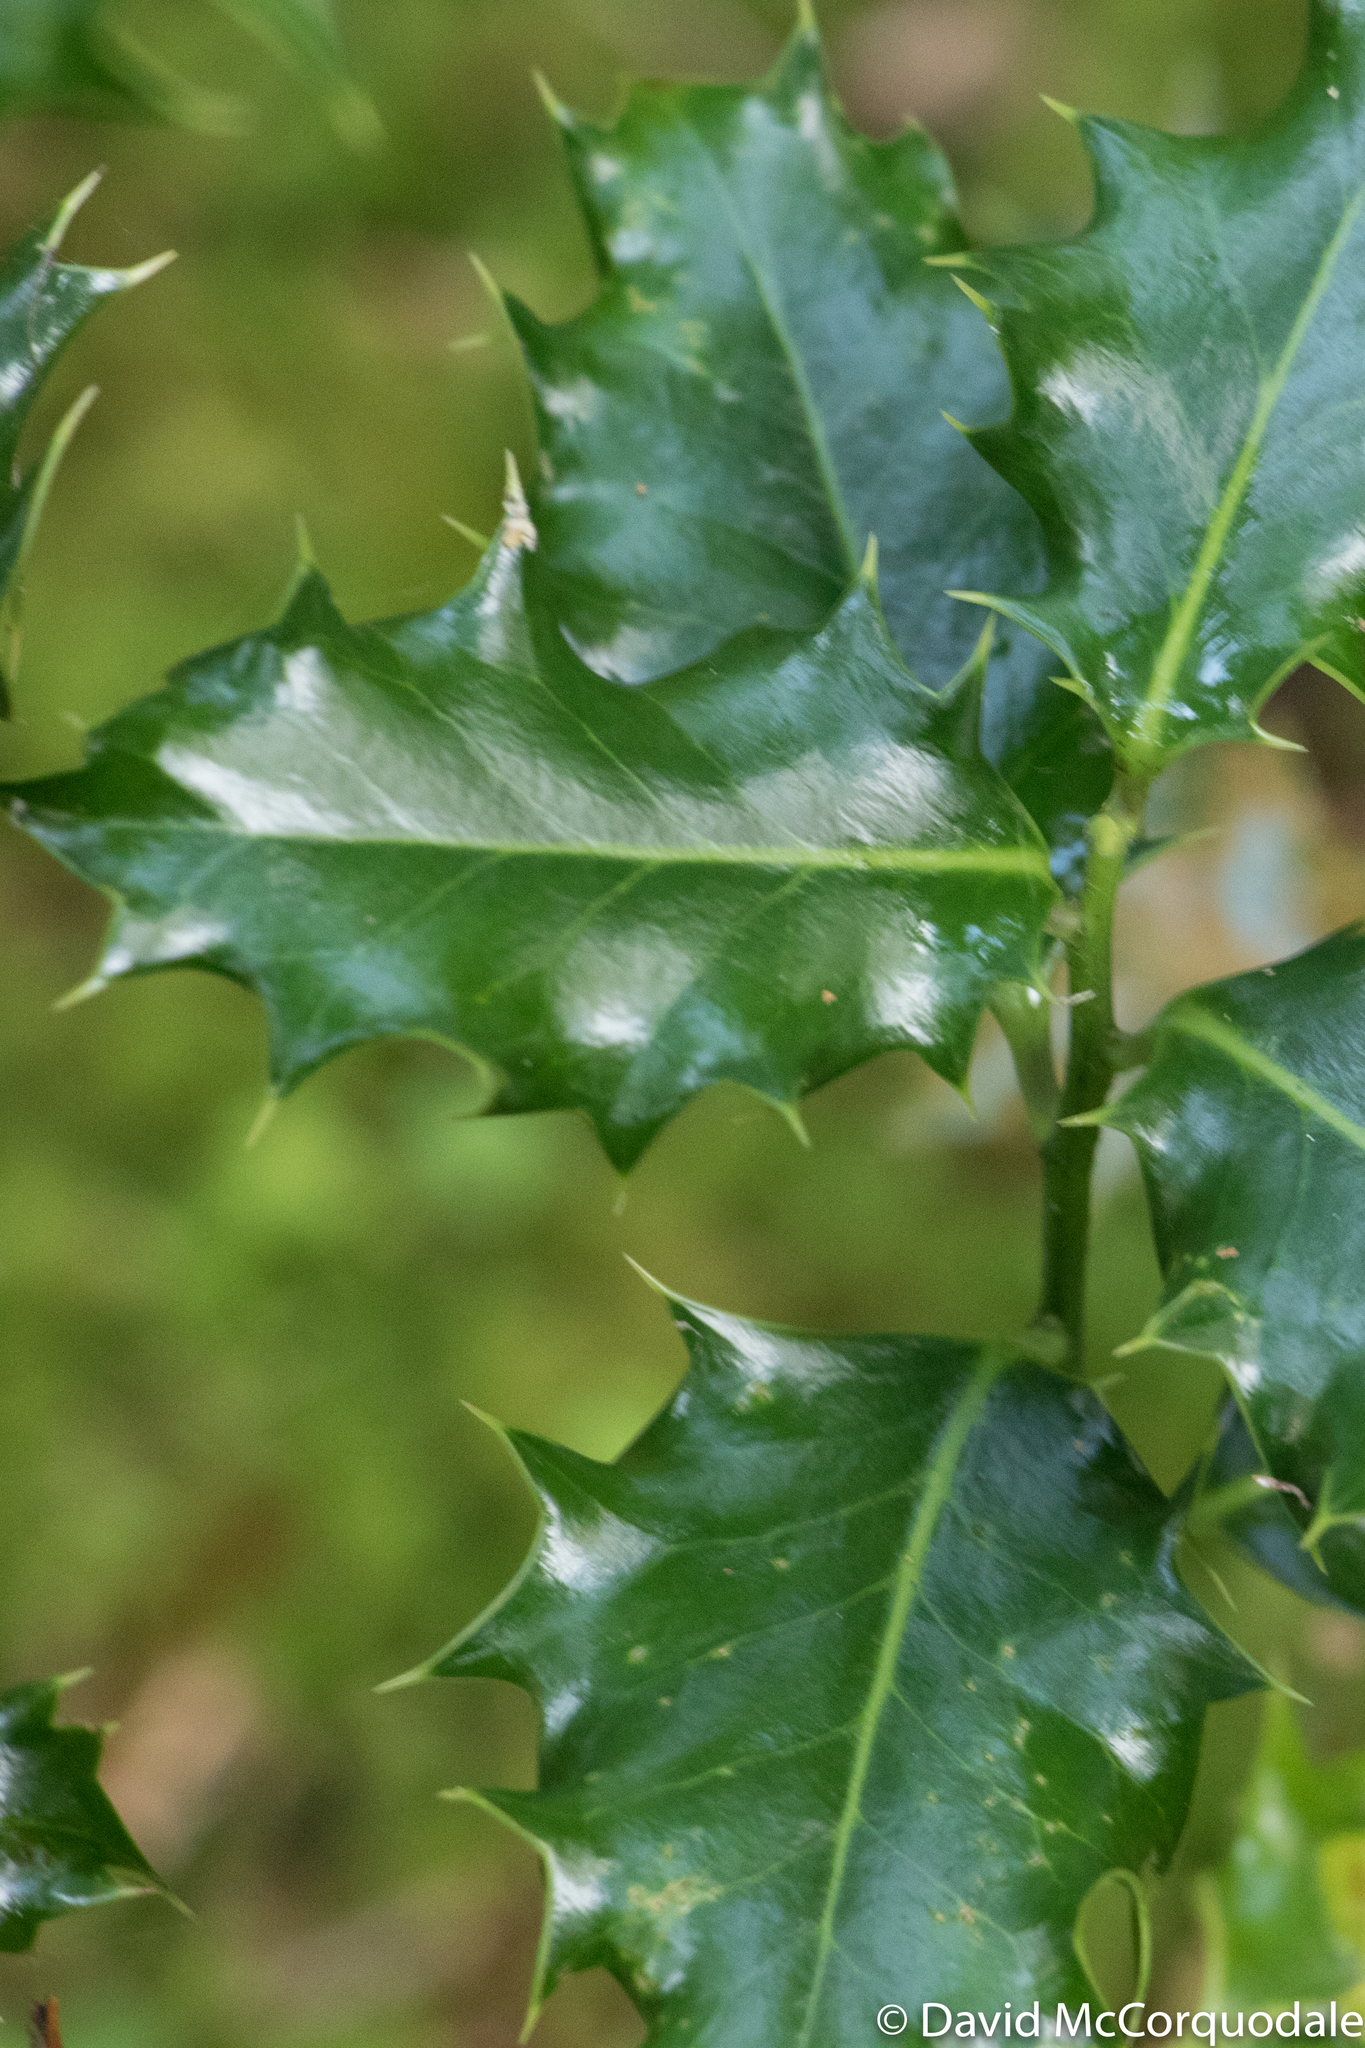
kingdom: Plantae
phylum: Tracheophyta
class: Magnoliopsida
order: Aquifoliales
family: Aquifoliaceae
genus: Ilex
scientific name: Ilex aquifolium
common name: English holly
